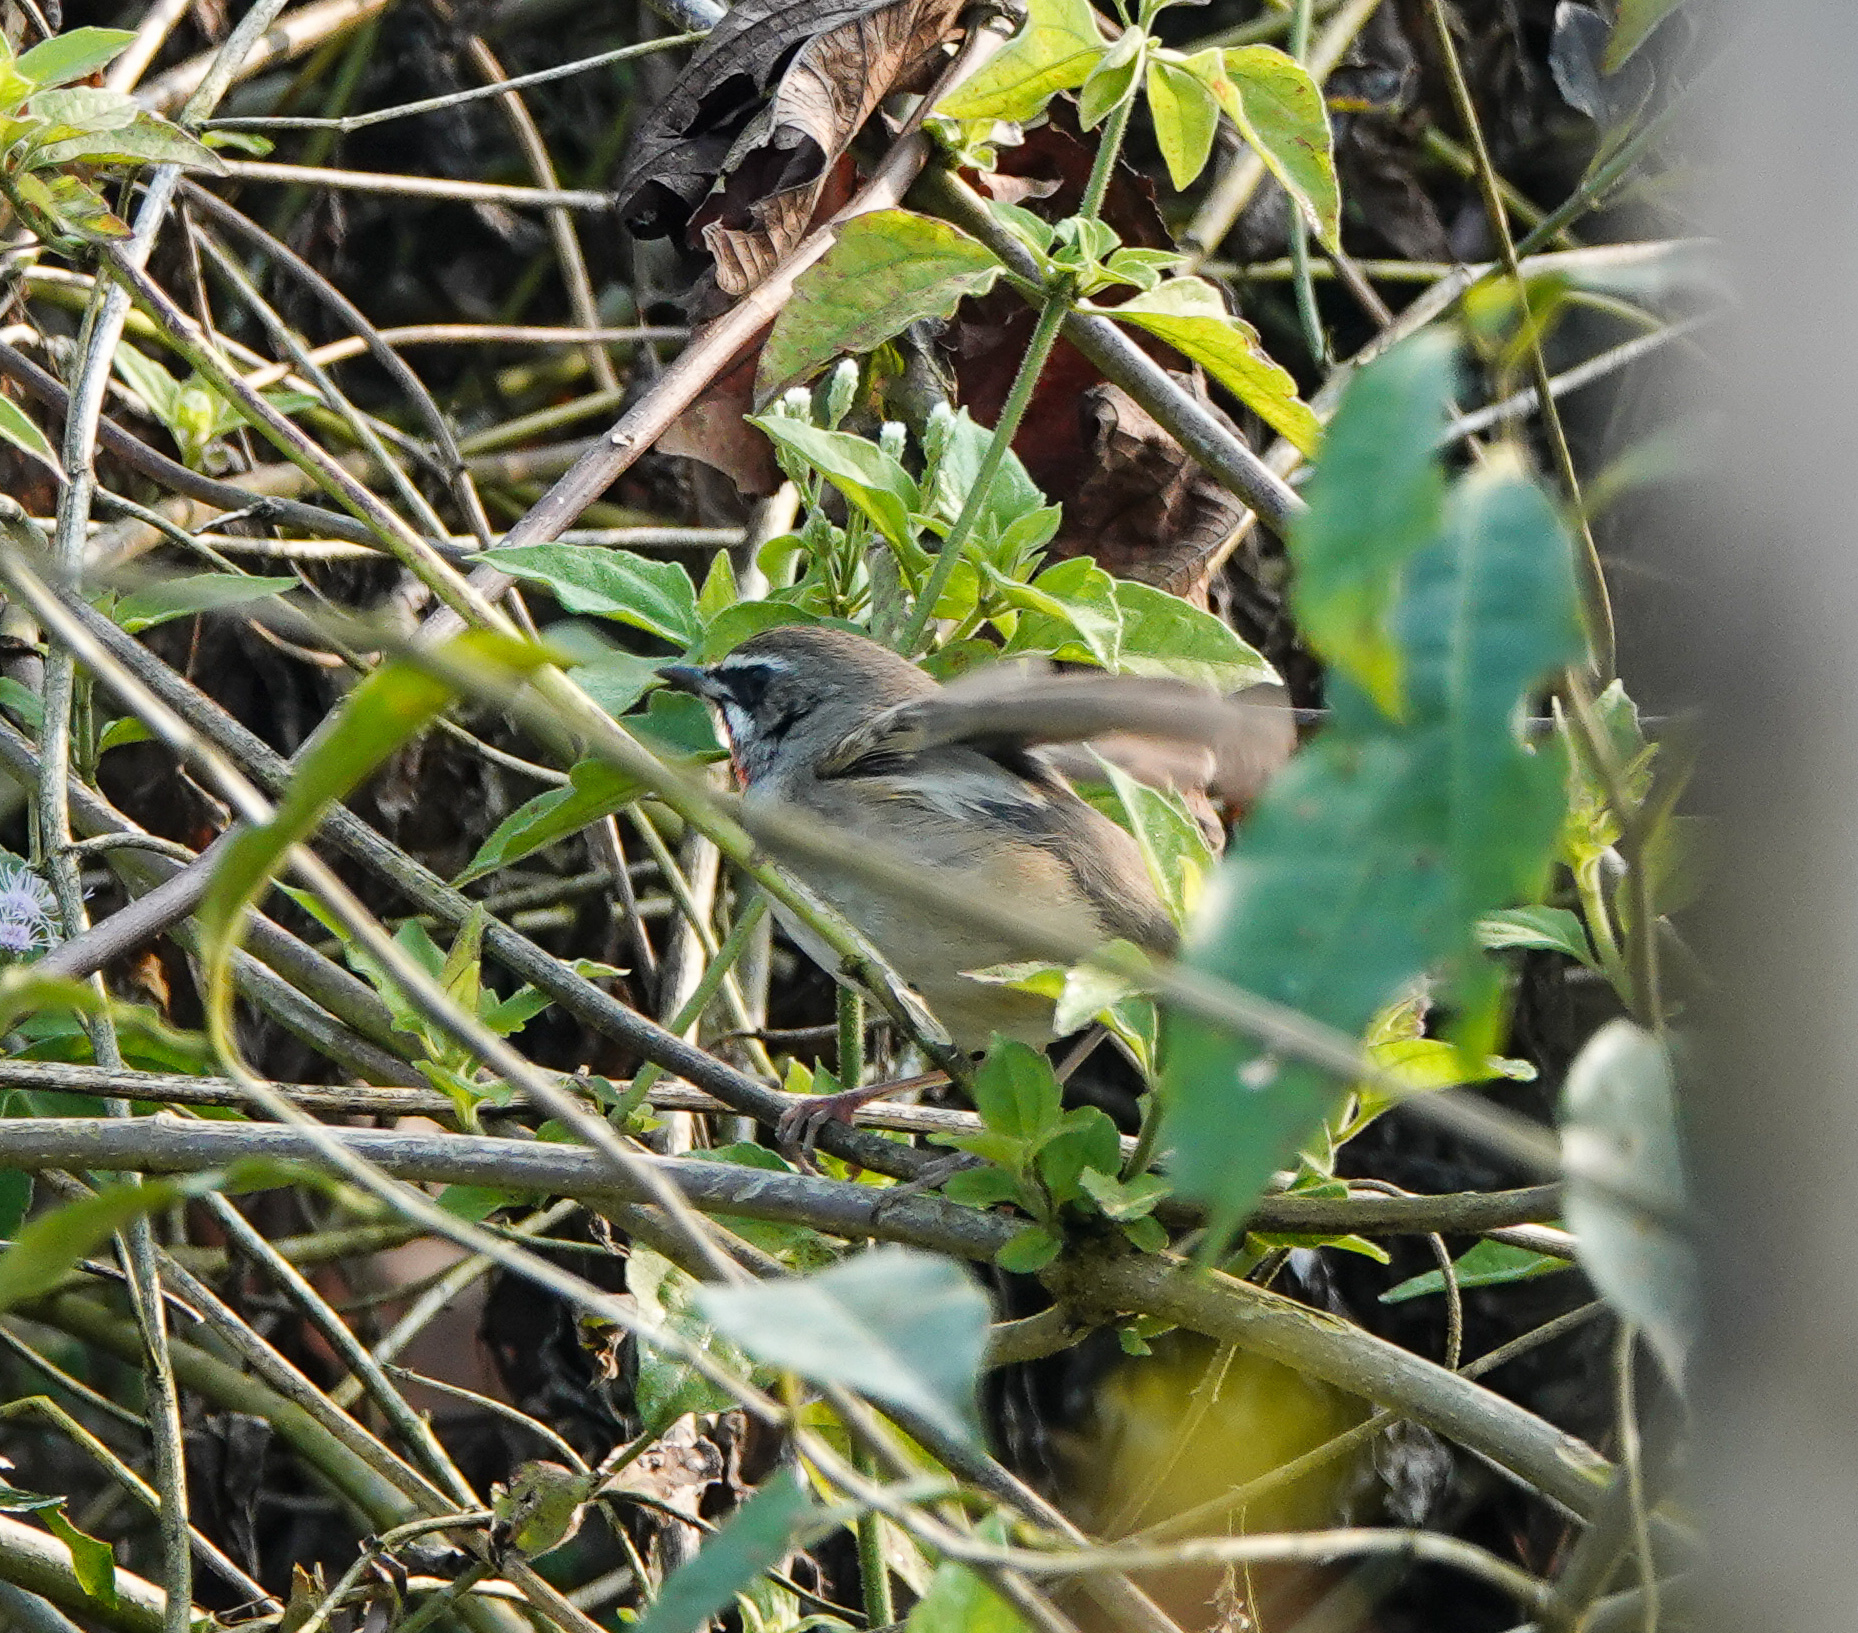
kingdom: Animalia
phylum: Chordata
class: Aves
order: Passeriformes
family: Muscicapidae
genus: Luscinia
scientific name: Luscinia calliope
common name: Siberian rubythroat
